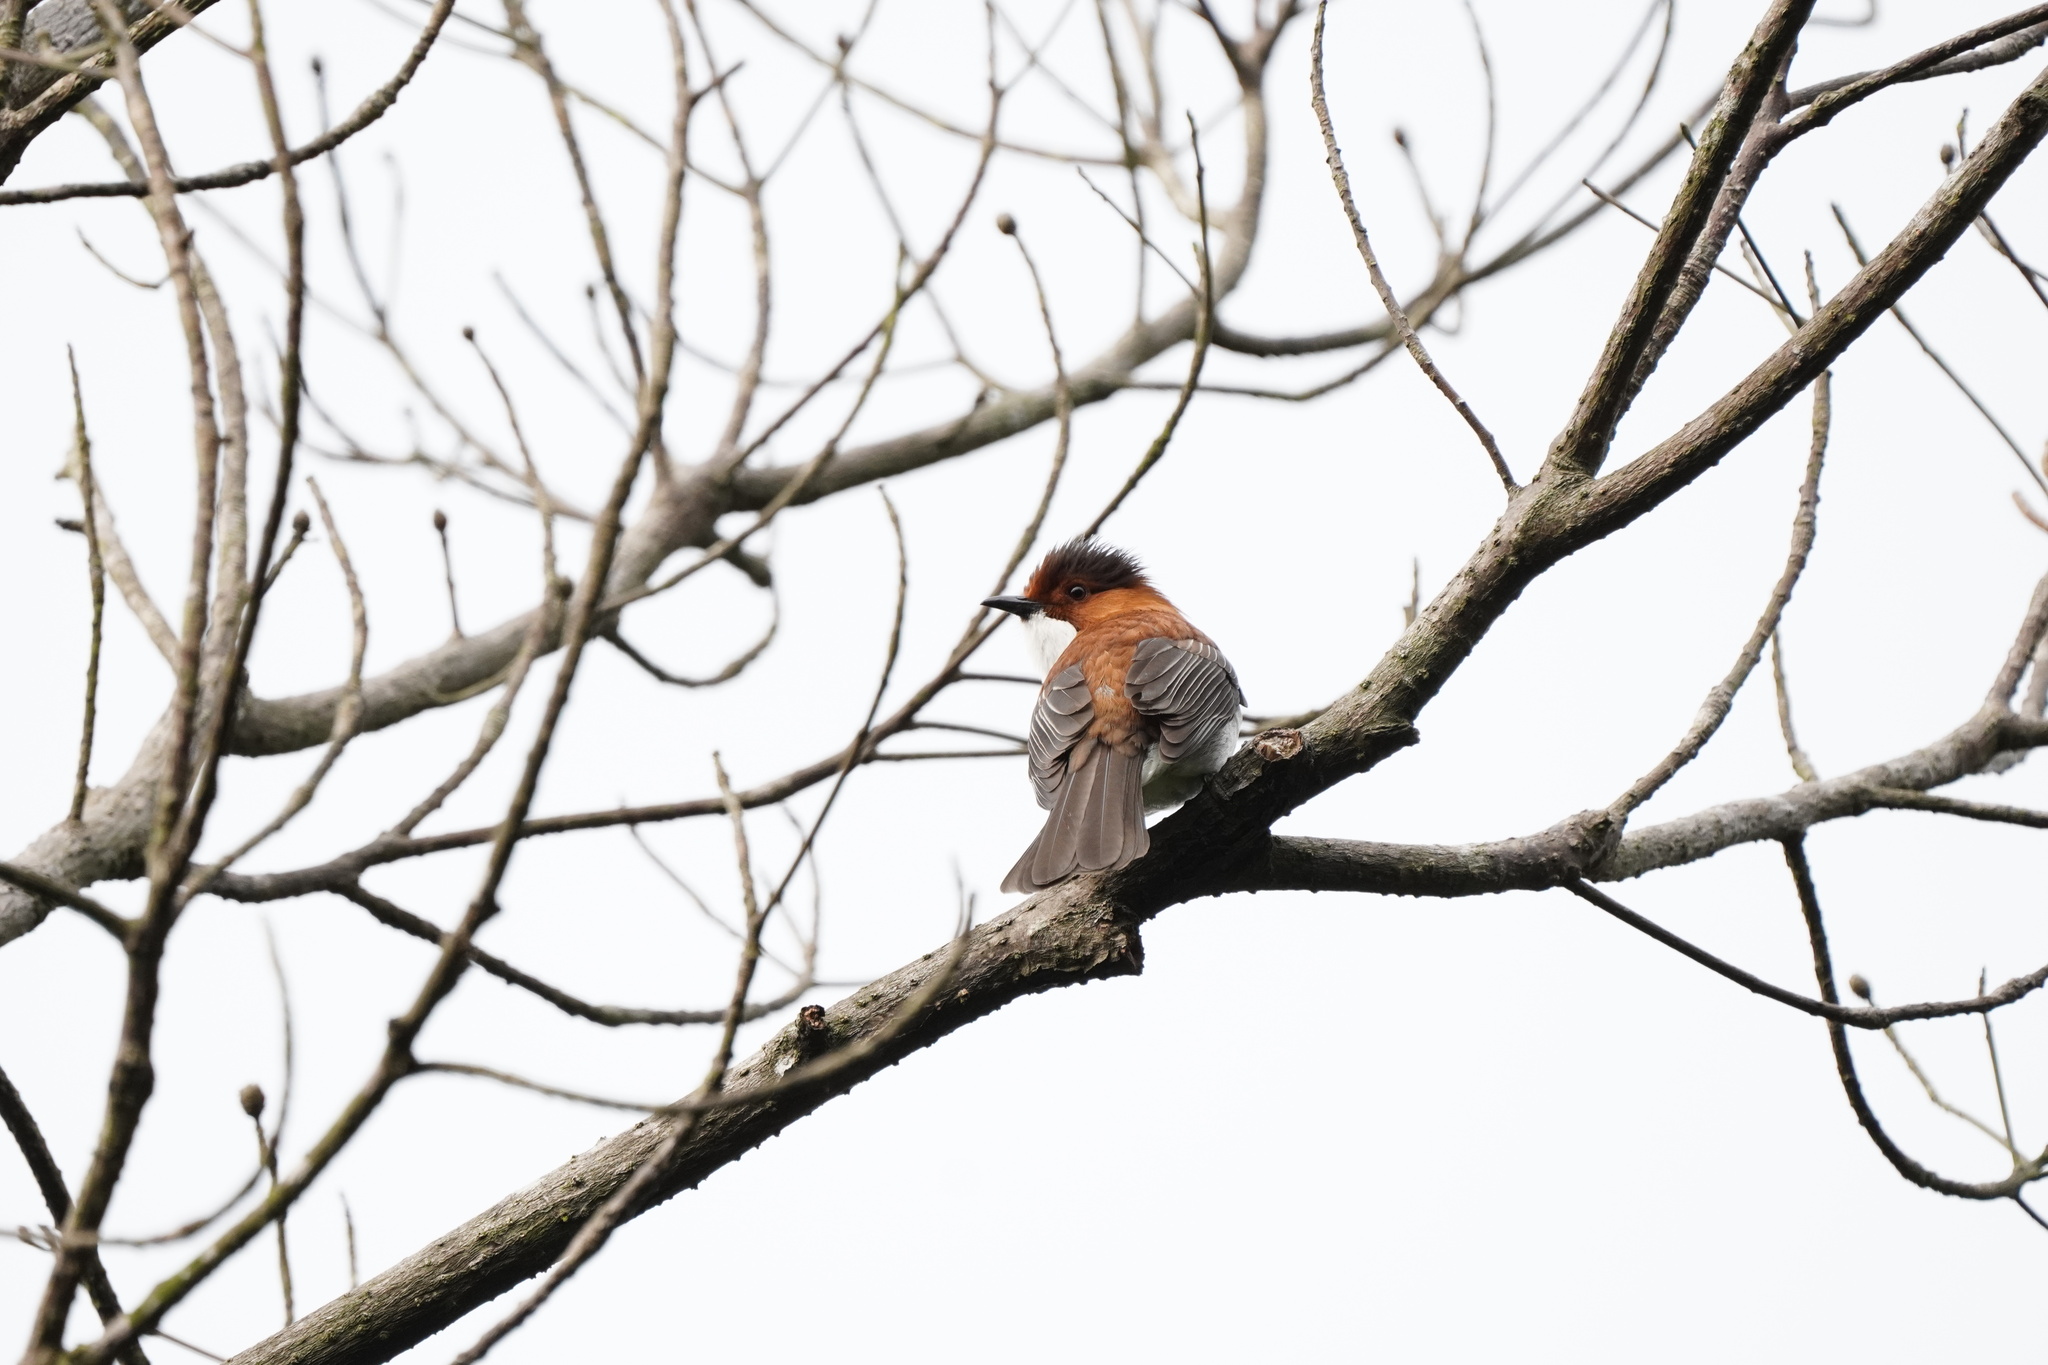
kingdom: Animalia
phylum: Chordata
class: Aves
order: Passeriformes
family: Pycnonotidae
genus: Hemixos
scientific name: Hemixos castanonotus
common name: Chestnut bulbul
